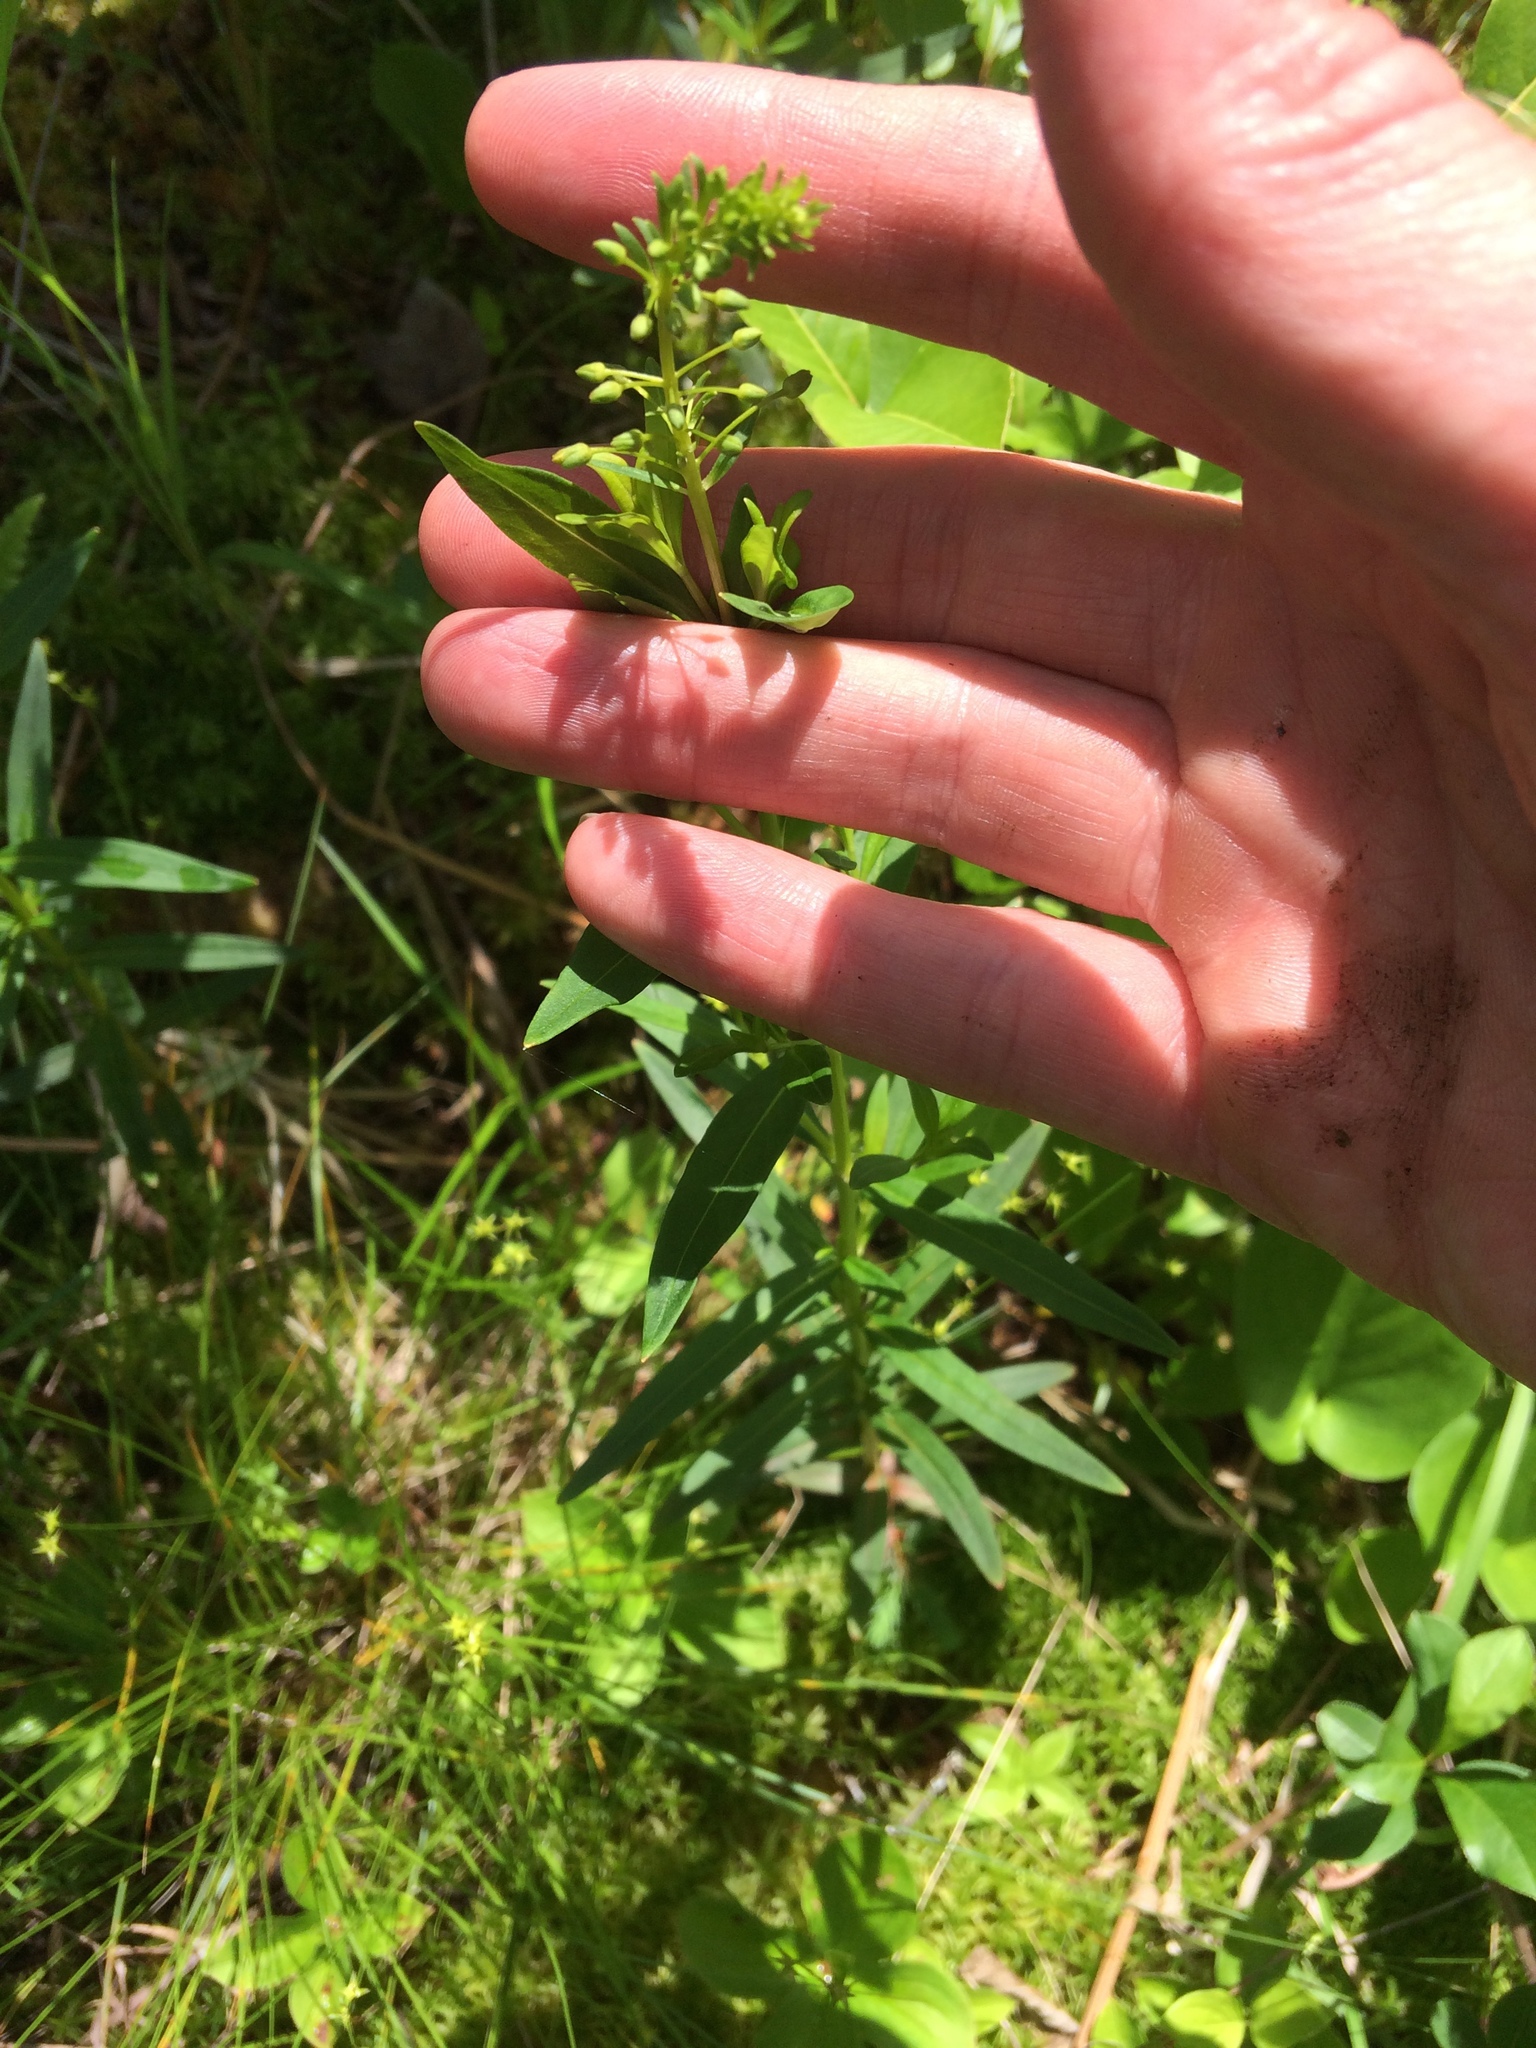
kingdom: Plantae
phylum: Tracheophyta
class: Magnoliopsida
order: Ericales
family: Primulaceae
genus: Lysimachia
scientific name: Lysimachia terrestris
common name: Lake loosestrife
